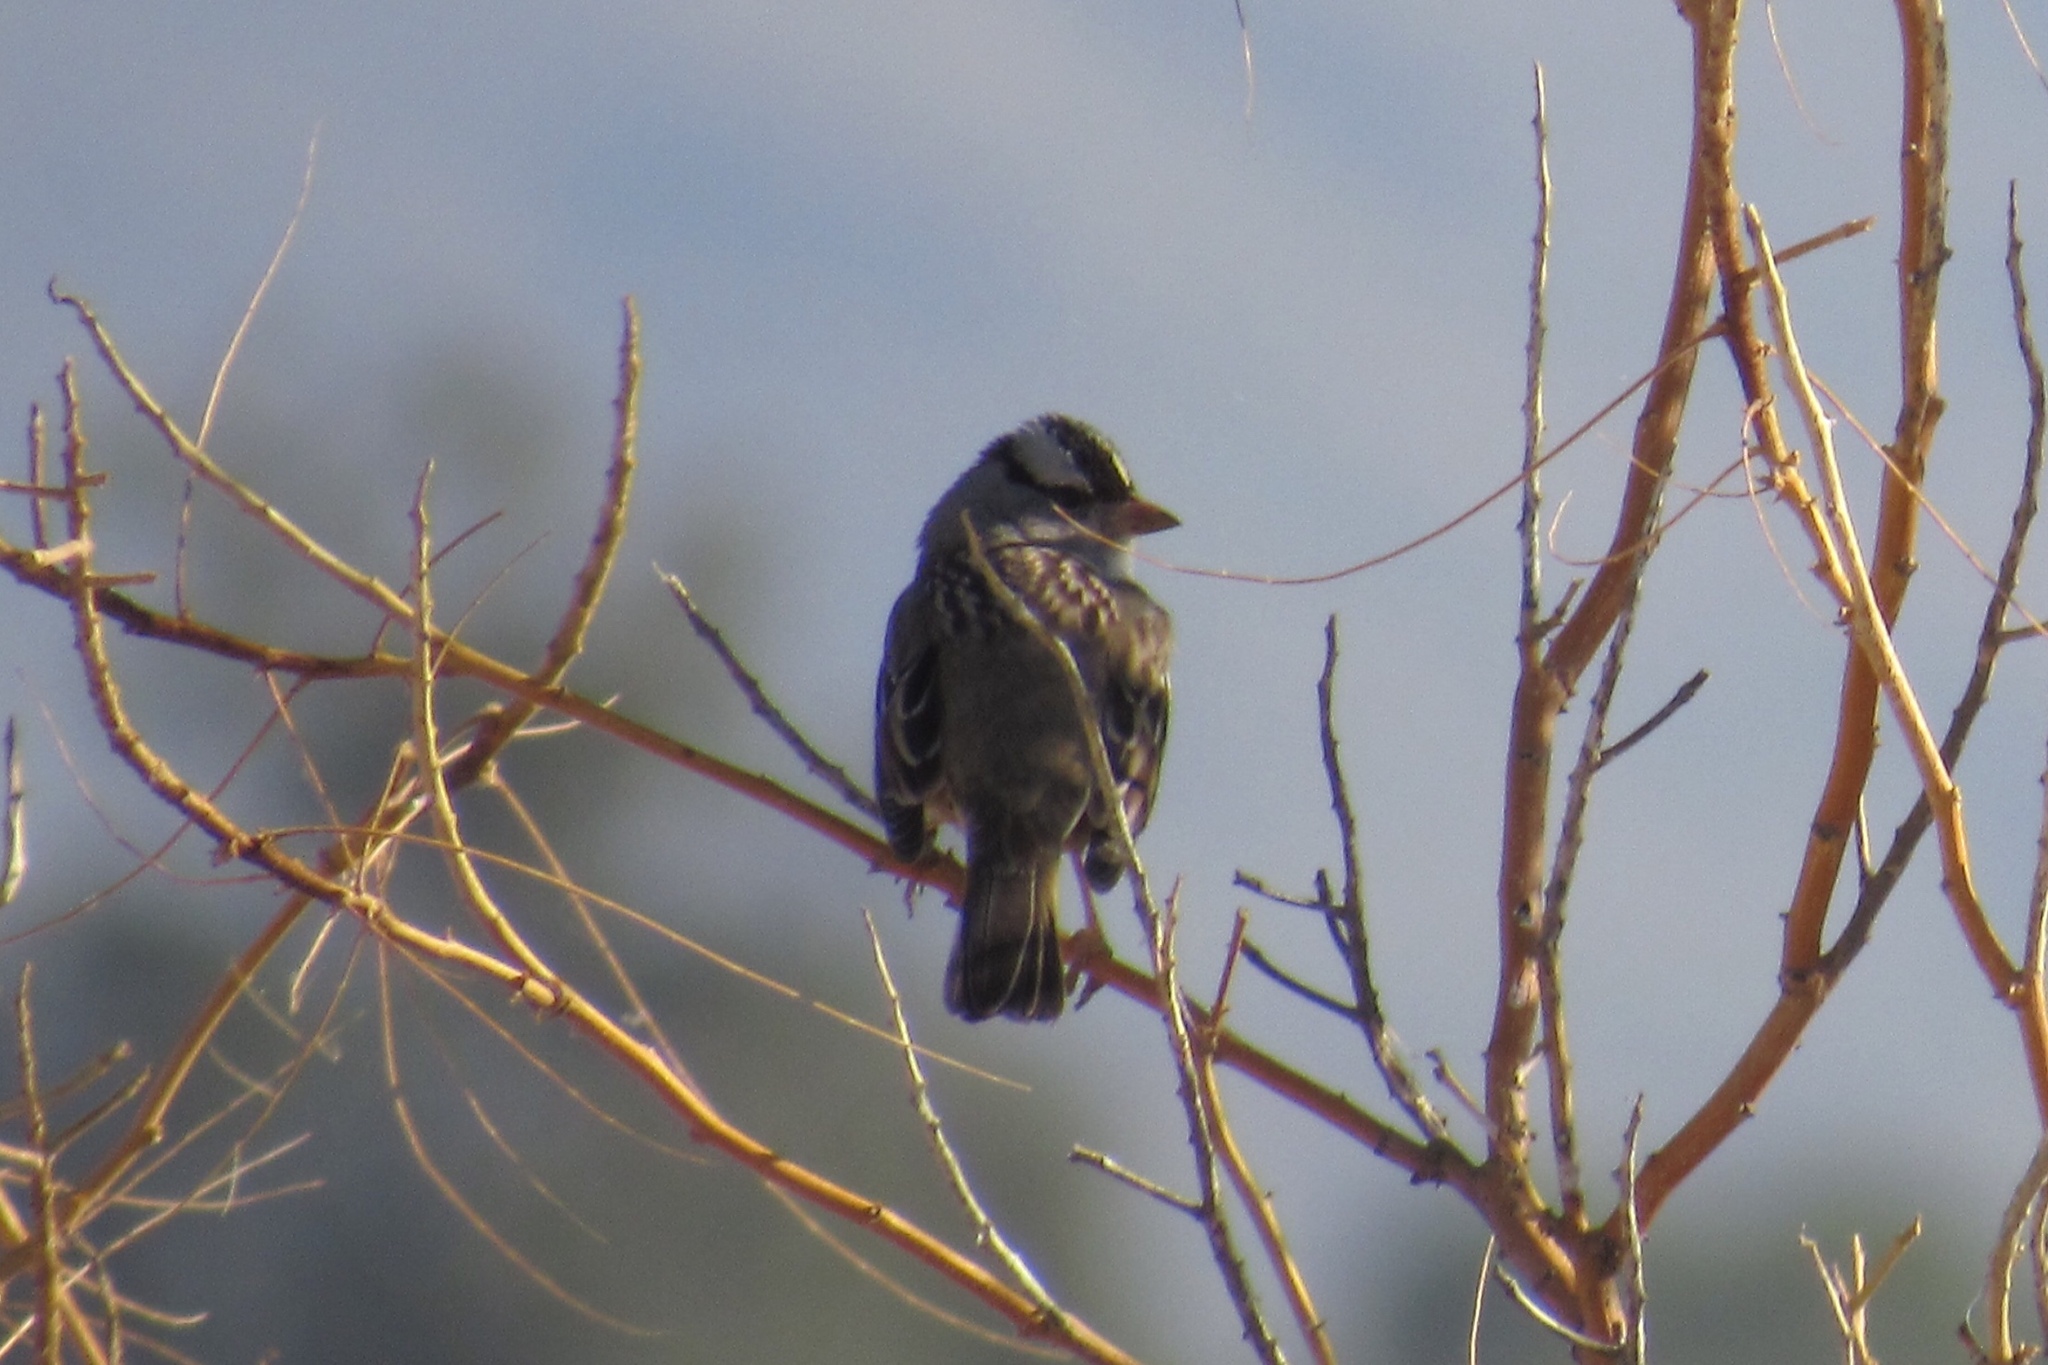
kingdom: Animalia
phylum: Chordata
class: Aves
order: Passeriformes
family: Passerellidae
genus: Zonotrichia
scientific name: Zonotrichia leucophrys
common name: White-crowned sparrow
